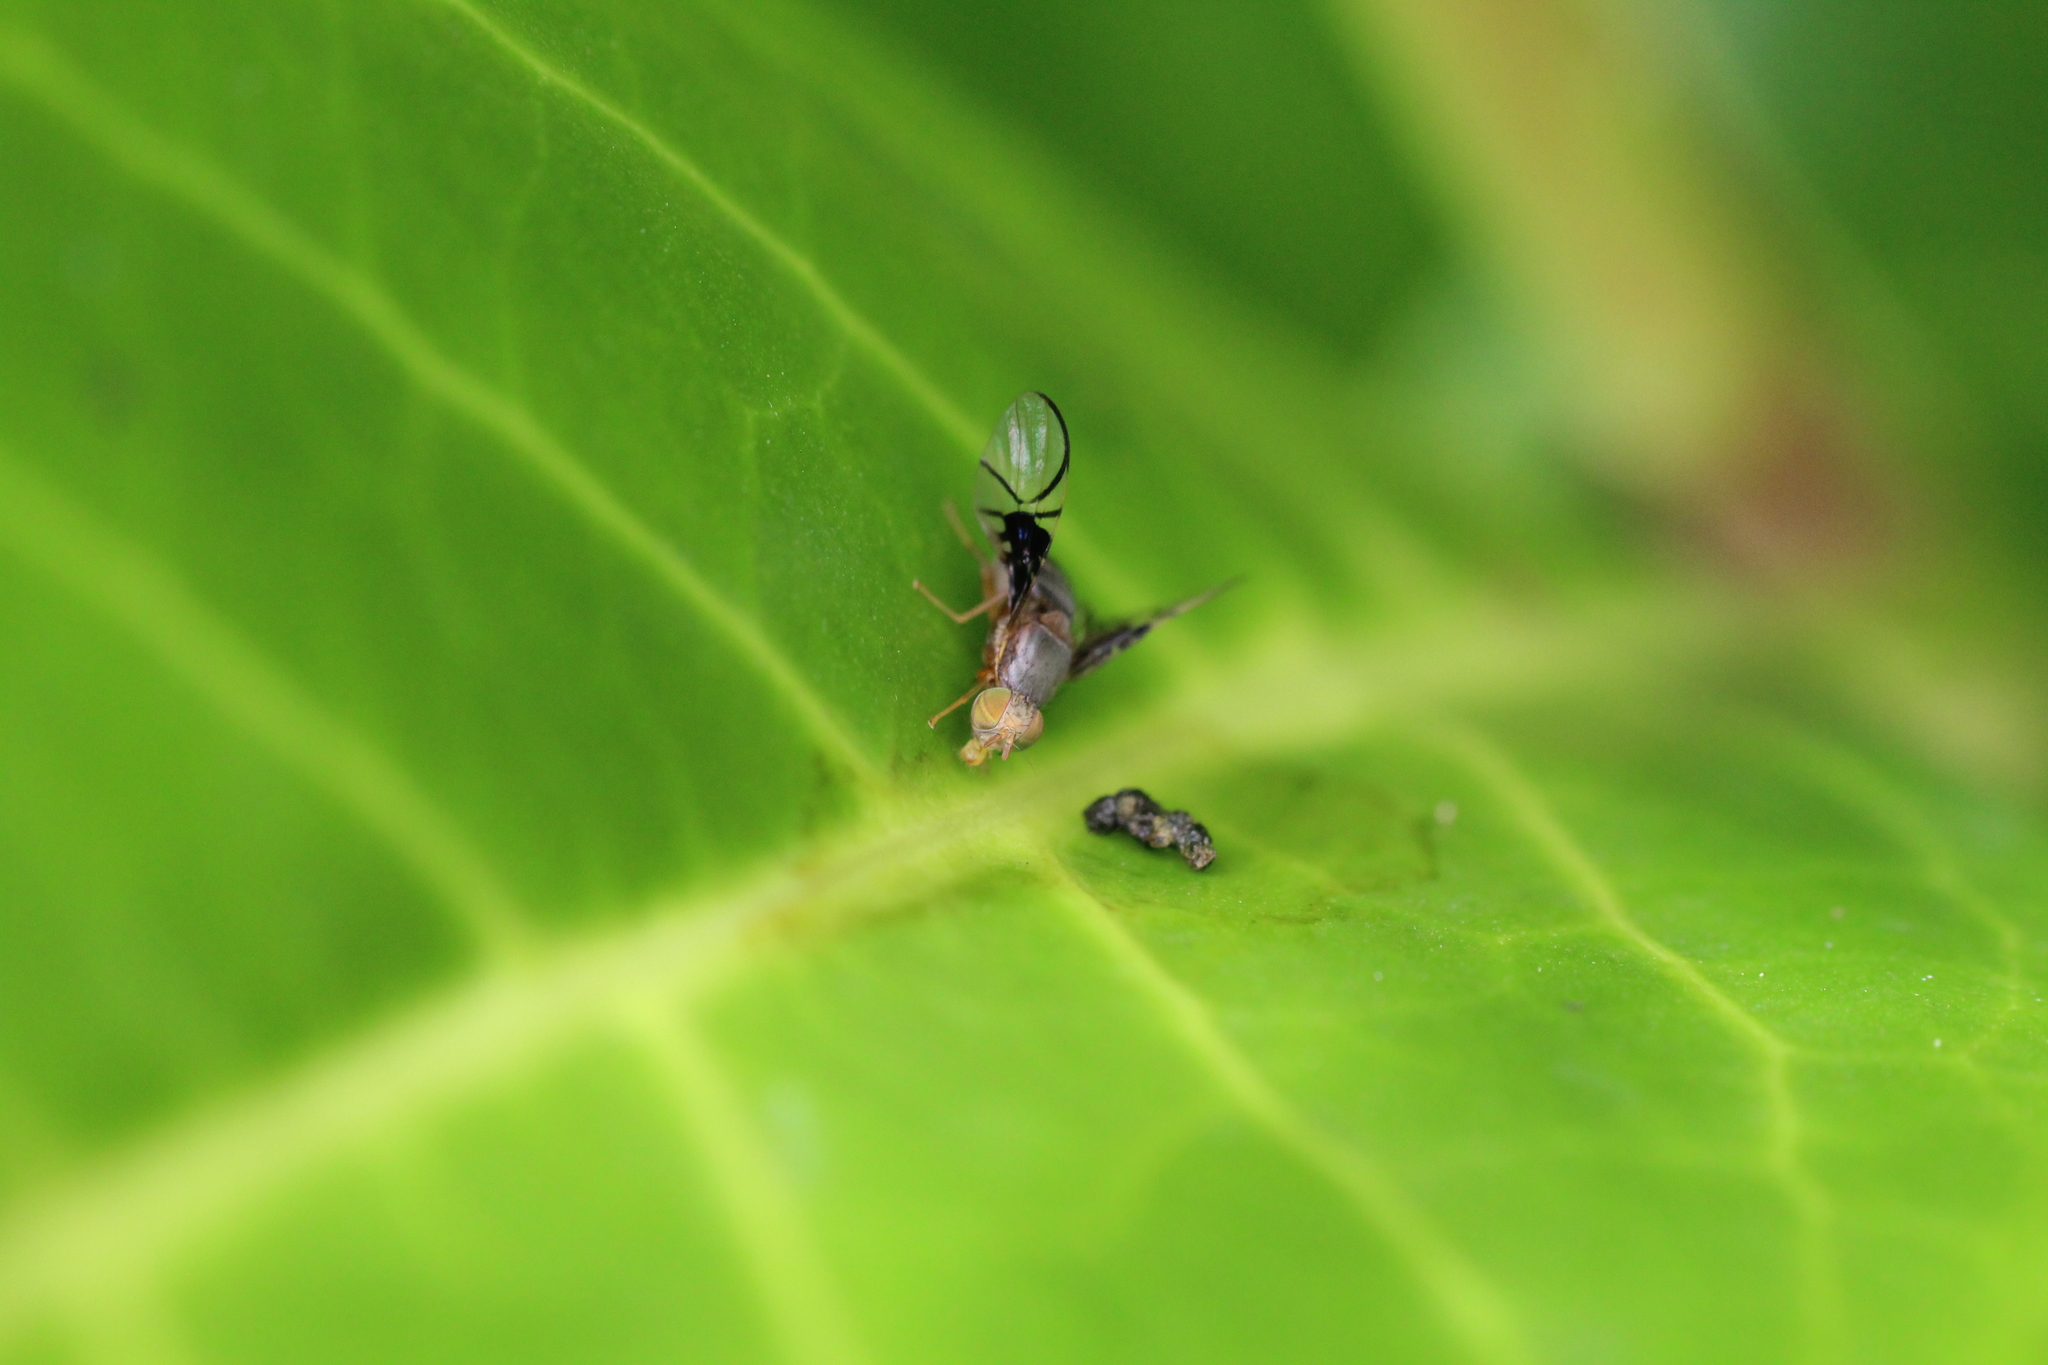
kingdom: Animalia
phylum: Arthropoda
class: Insecta
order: Diptera
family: Tephritidae
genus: Anomoia
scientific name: Anomoia purmunda
